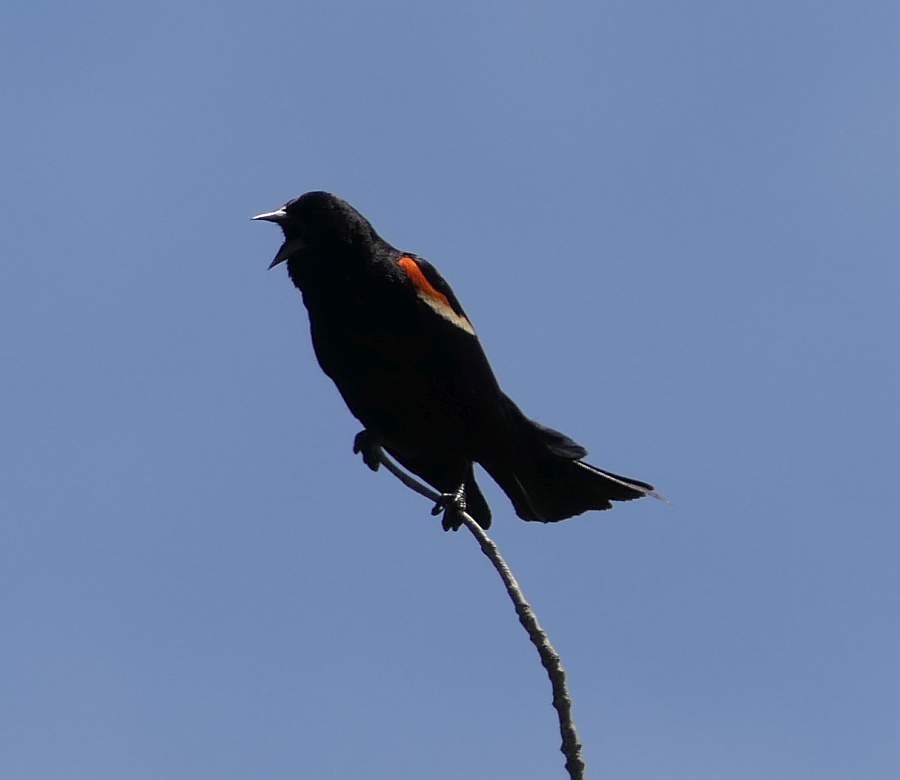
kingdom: Animalia
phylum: Chordata
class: Aves
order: Passeriformes
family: Icteridae
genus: Agelaius
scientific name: Agelaius phoeniceus
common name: Red-winged blackbird
